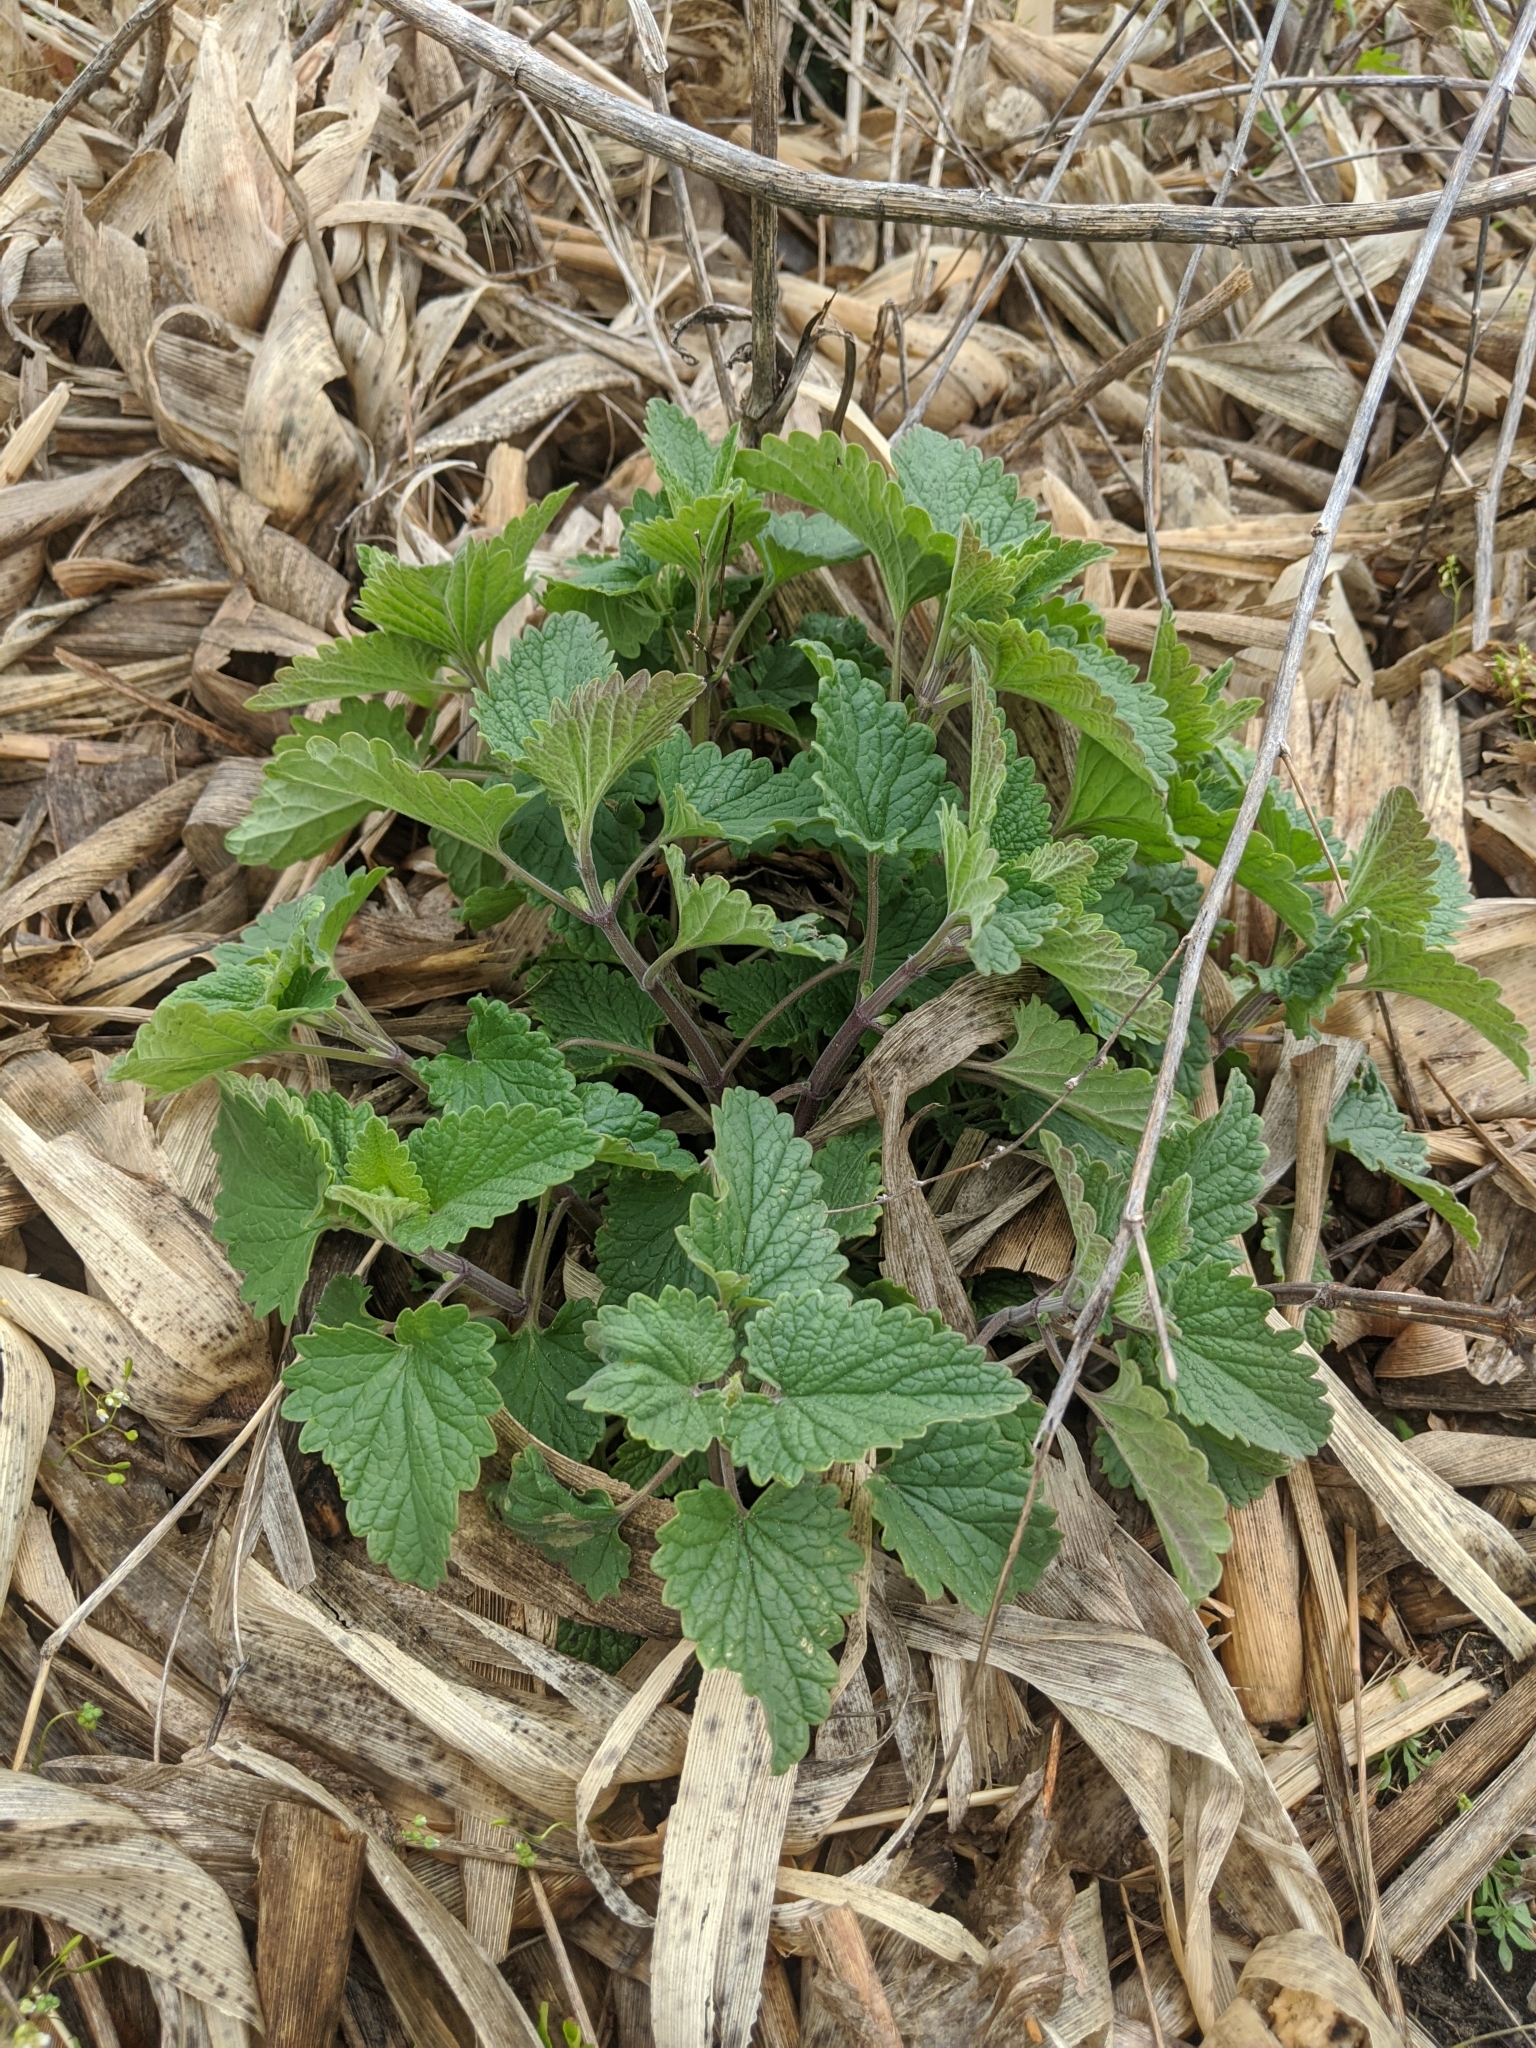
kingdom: Plantae
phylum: Tracheophyta
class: Magnoliopsida
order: Lamiales
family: Lamiaceae
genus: Nepeta
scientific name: Nepeta cataria
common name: Catnip
